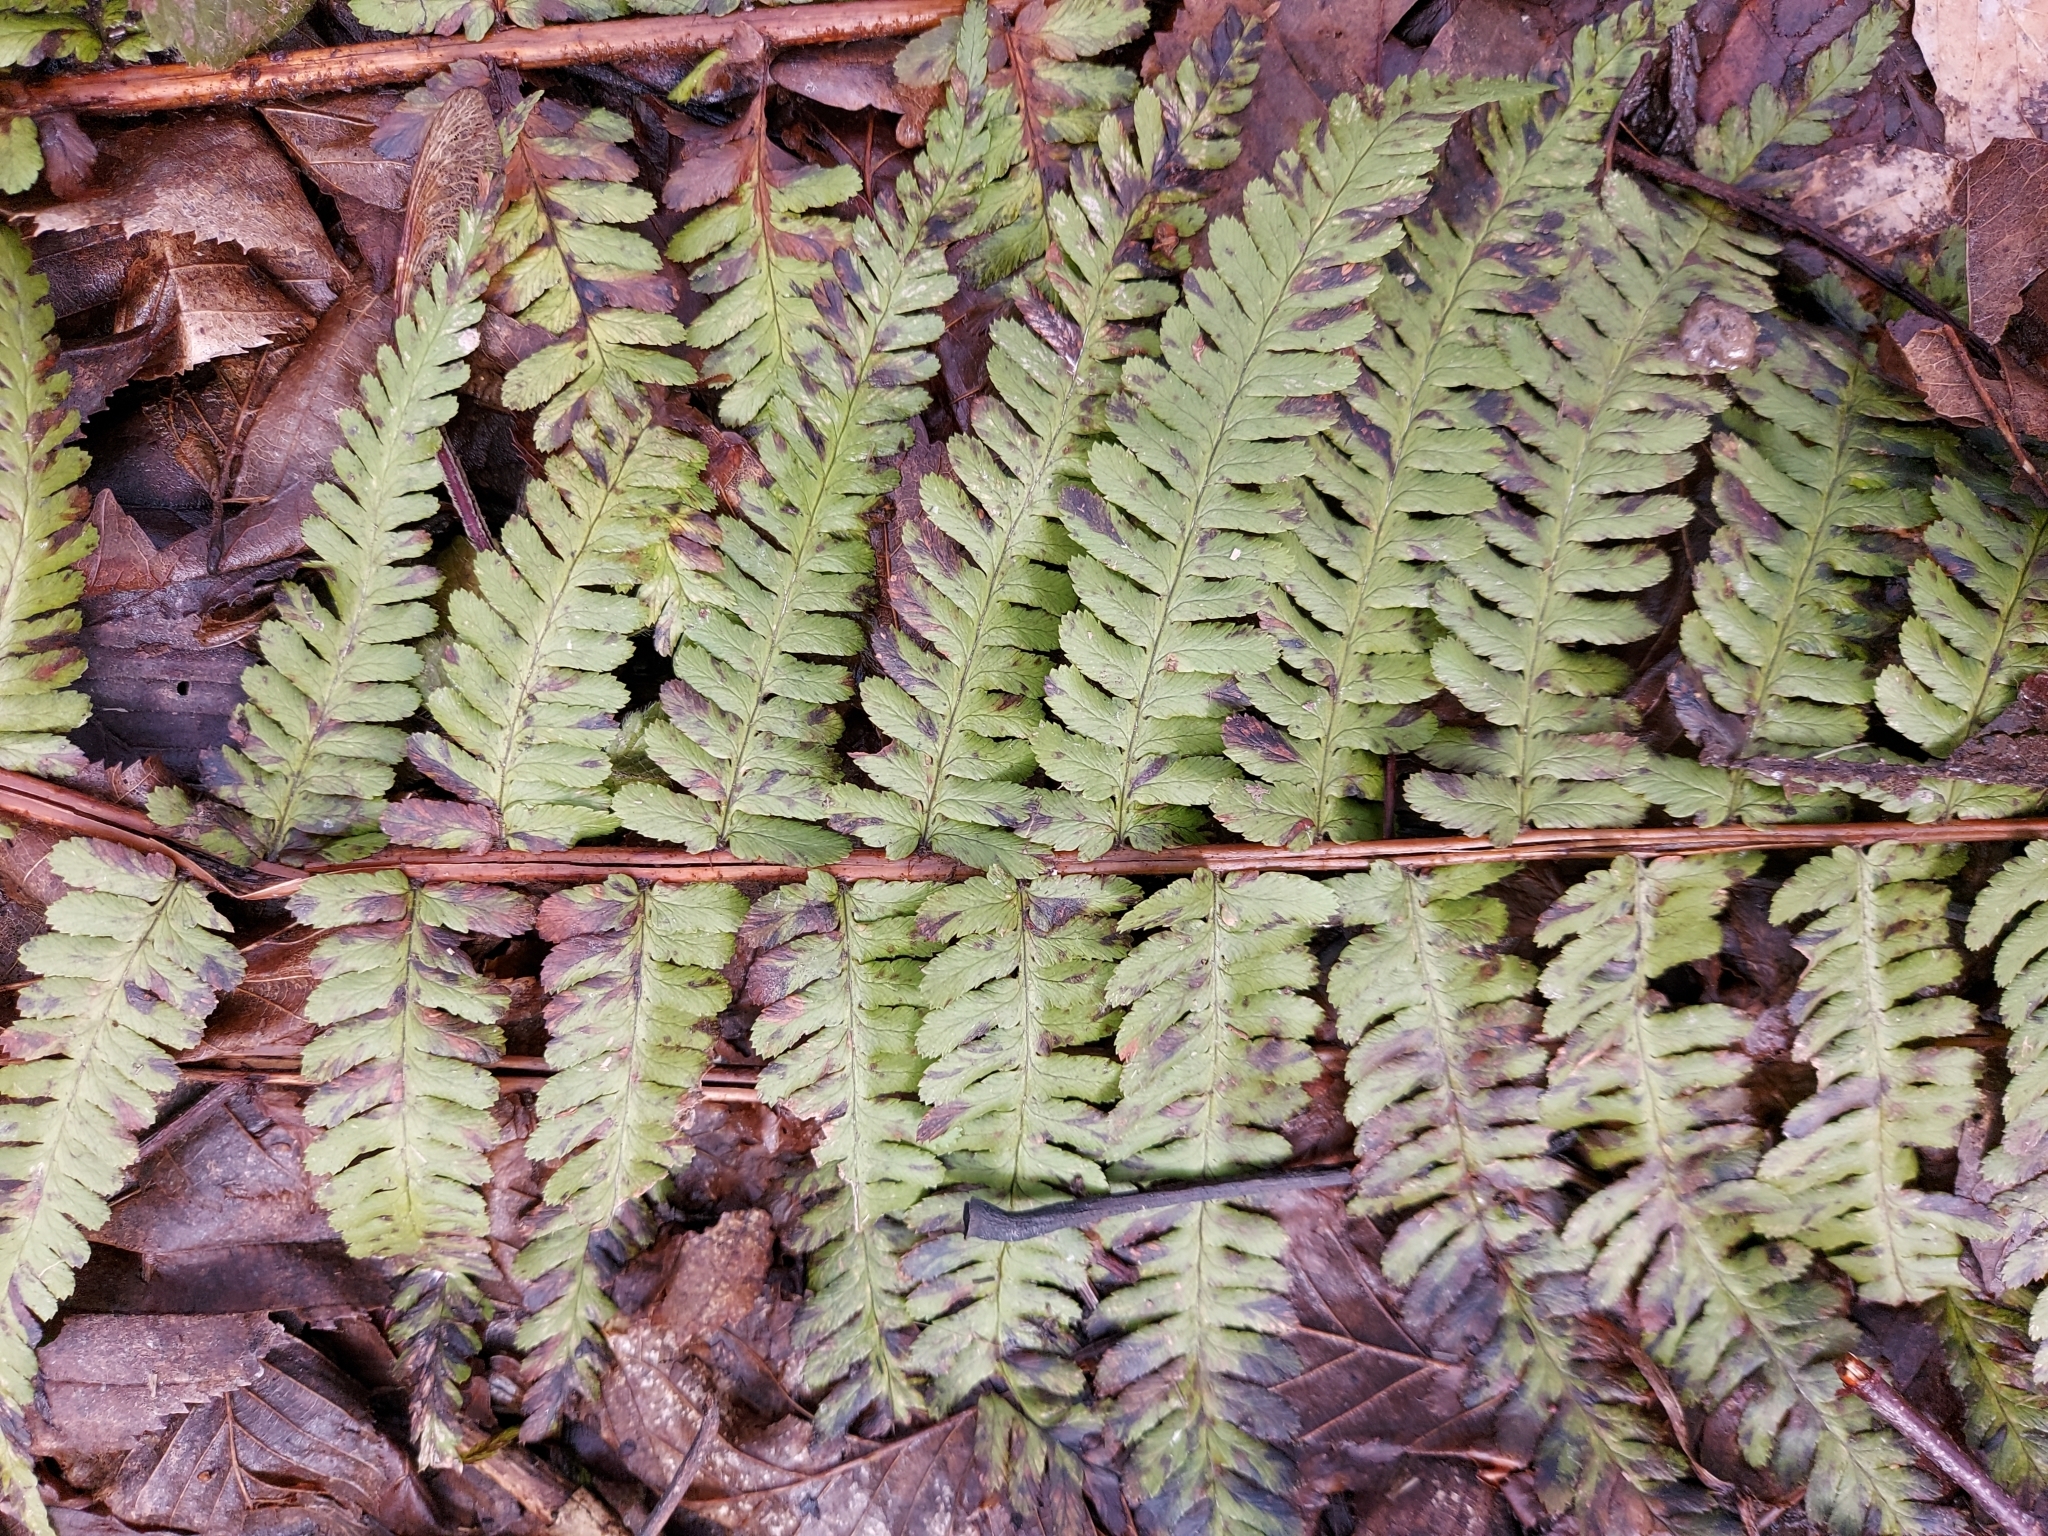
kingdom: Plantae
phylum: Tracheophyta
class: Polypodiopsida
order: Polypodiales
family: Dryopteridaceae
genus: Dryopteris
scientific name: Dryopteris filix-mas
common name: Male fern
